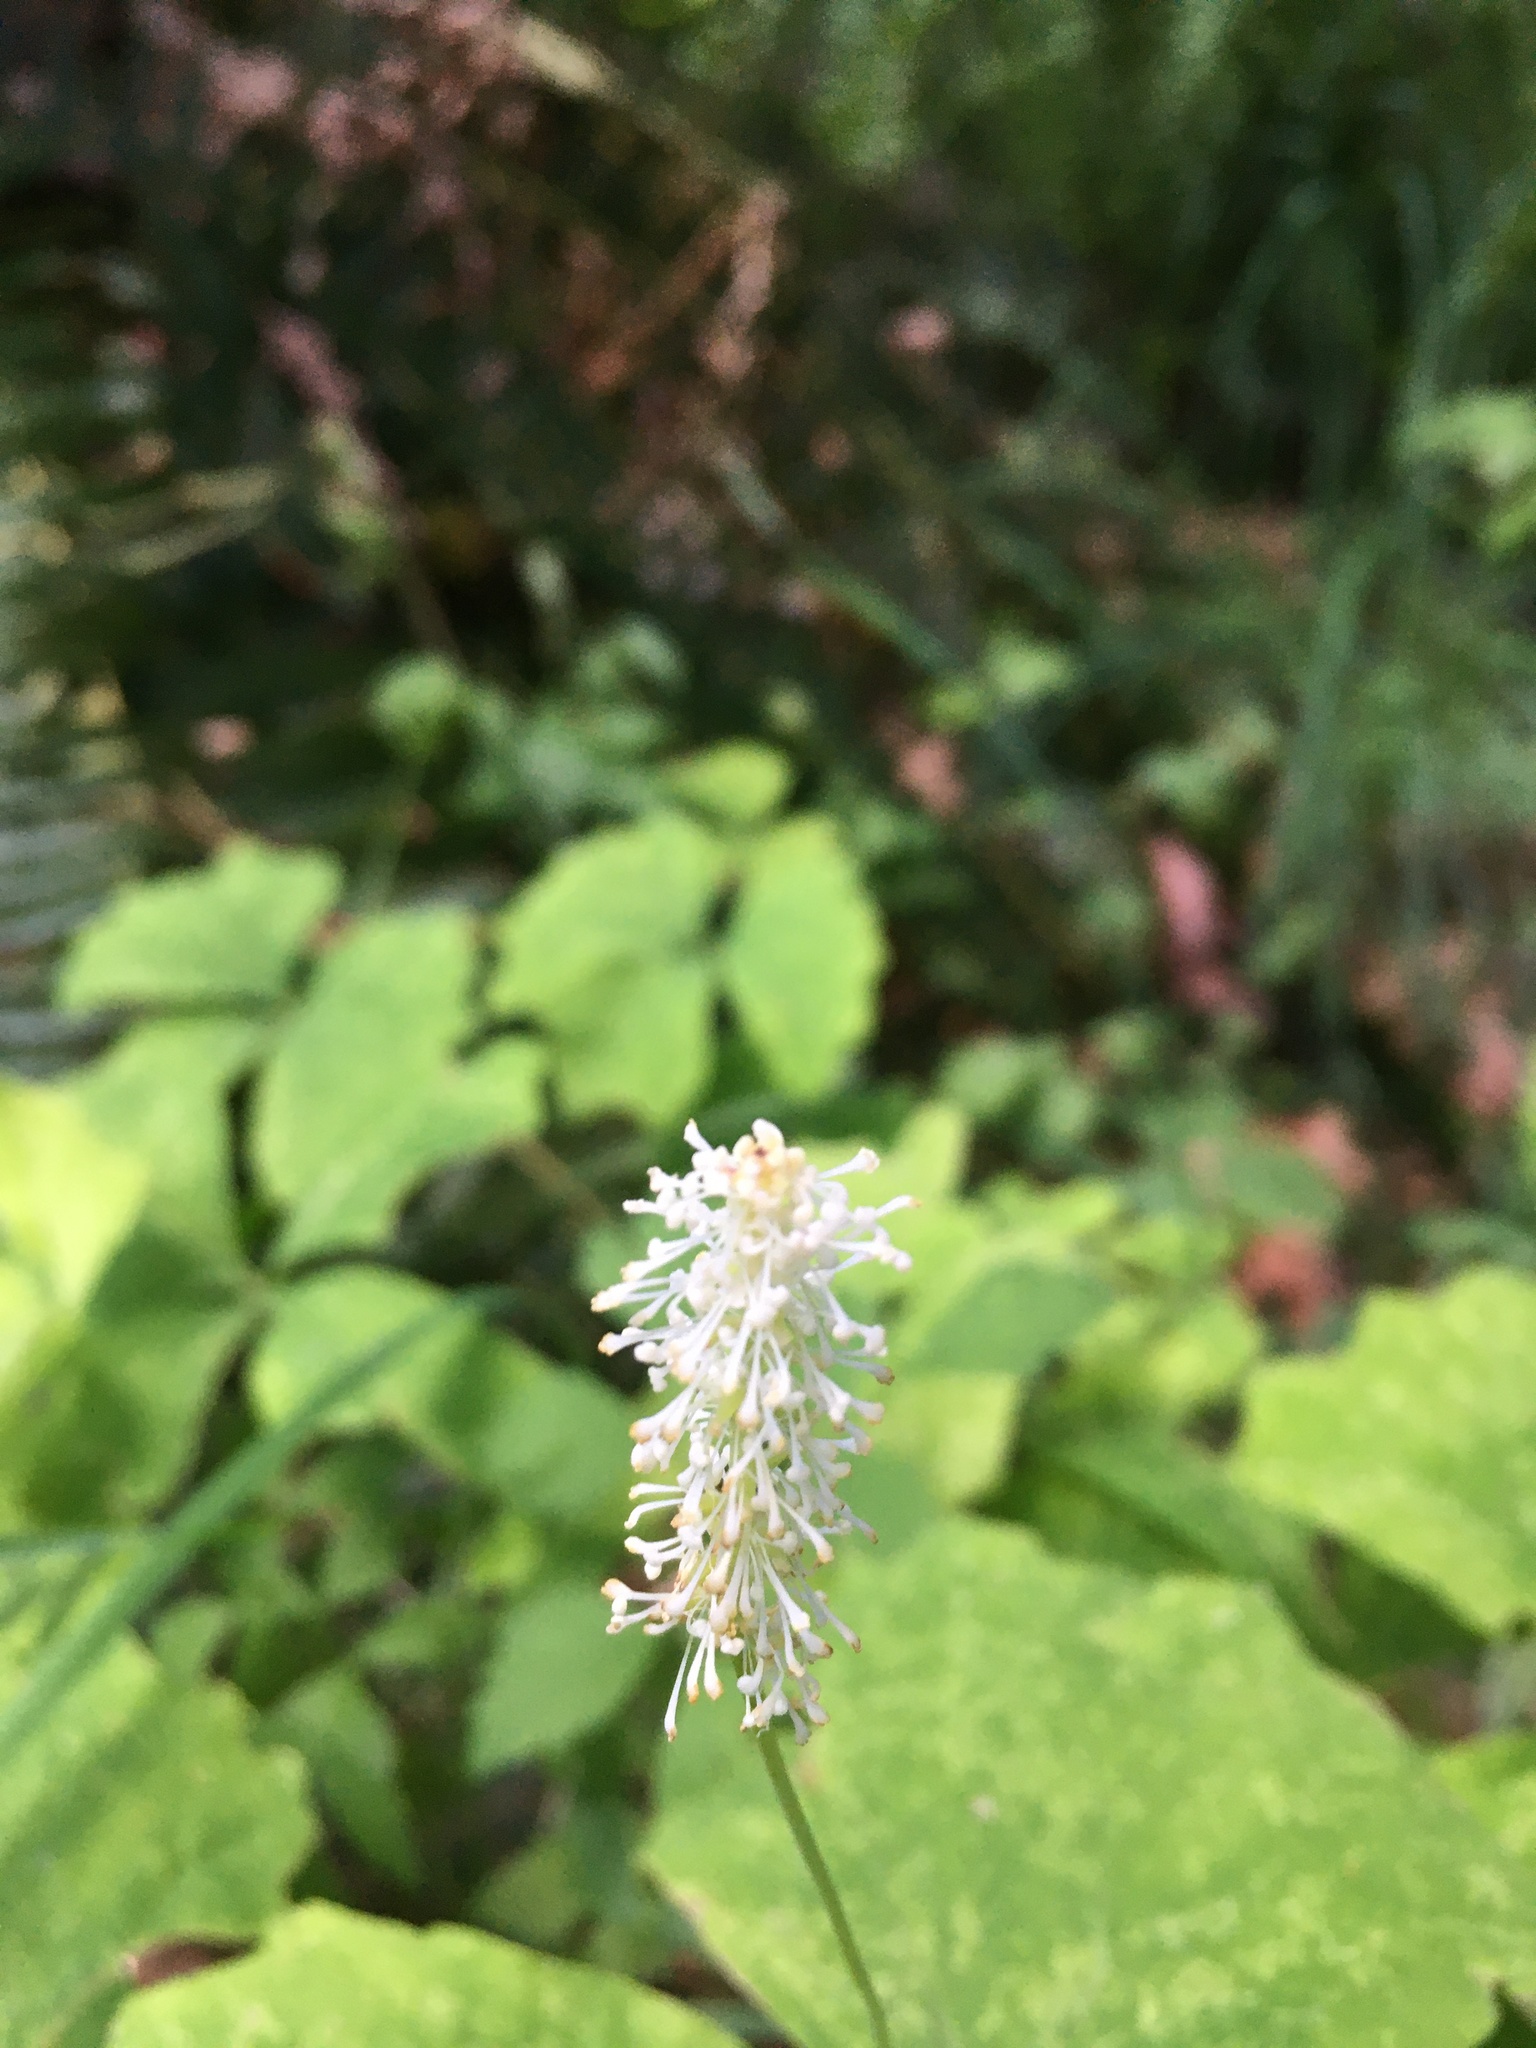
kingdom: Plantae
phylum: Tracheophyta
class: Magnoliopsida
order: Ranunculales
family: Berberidaceae
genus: Achlys
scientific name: Achlys triphylla
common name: Vanilla-leaf
